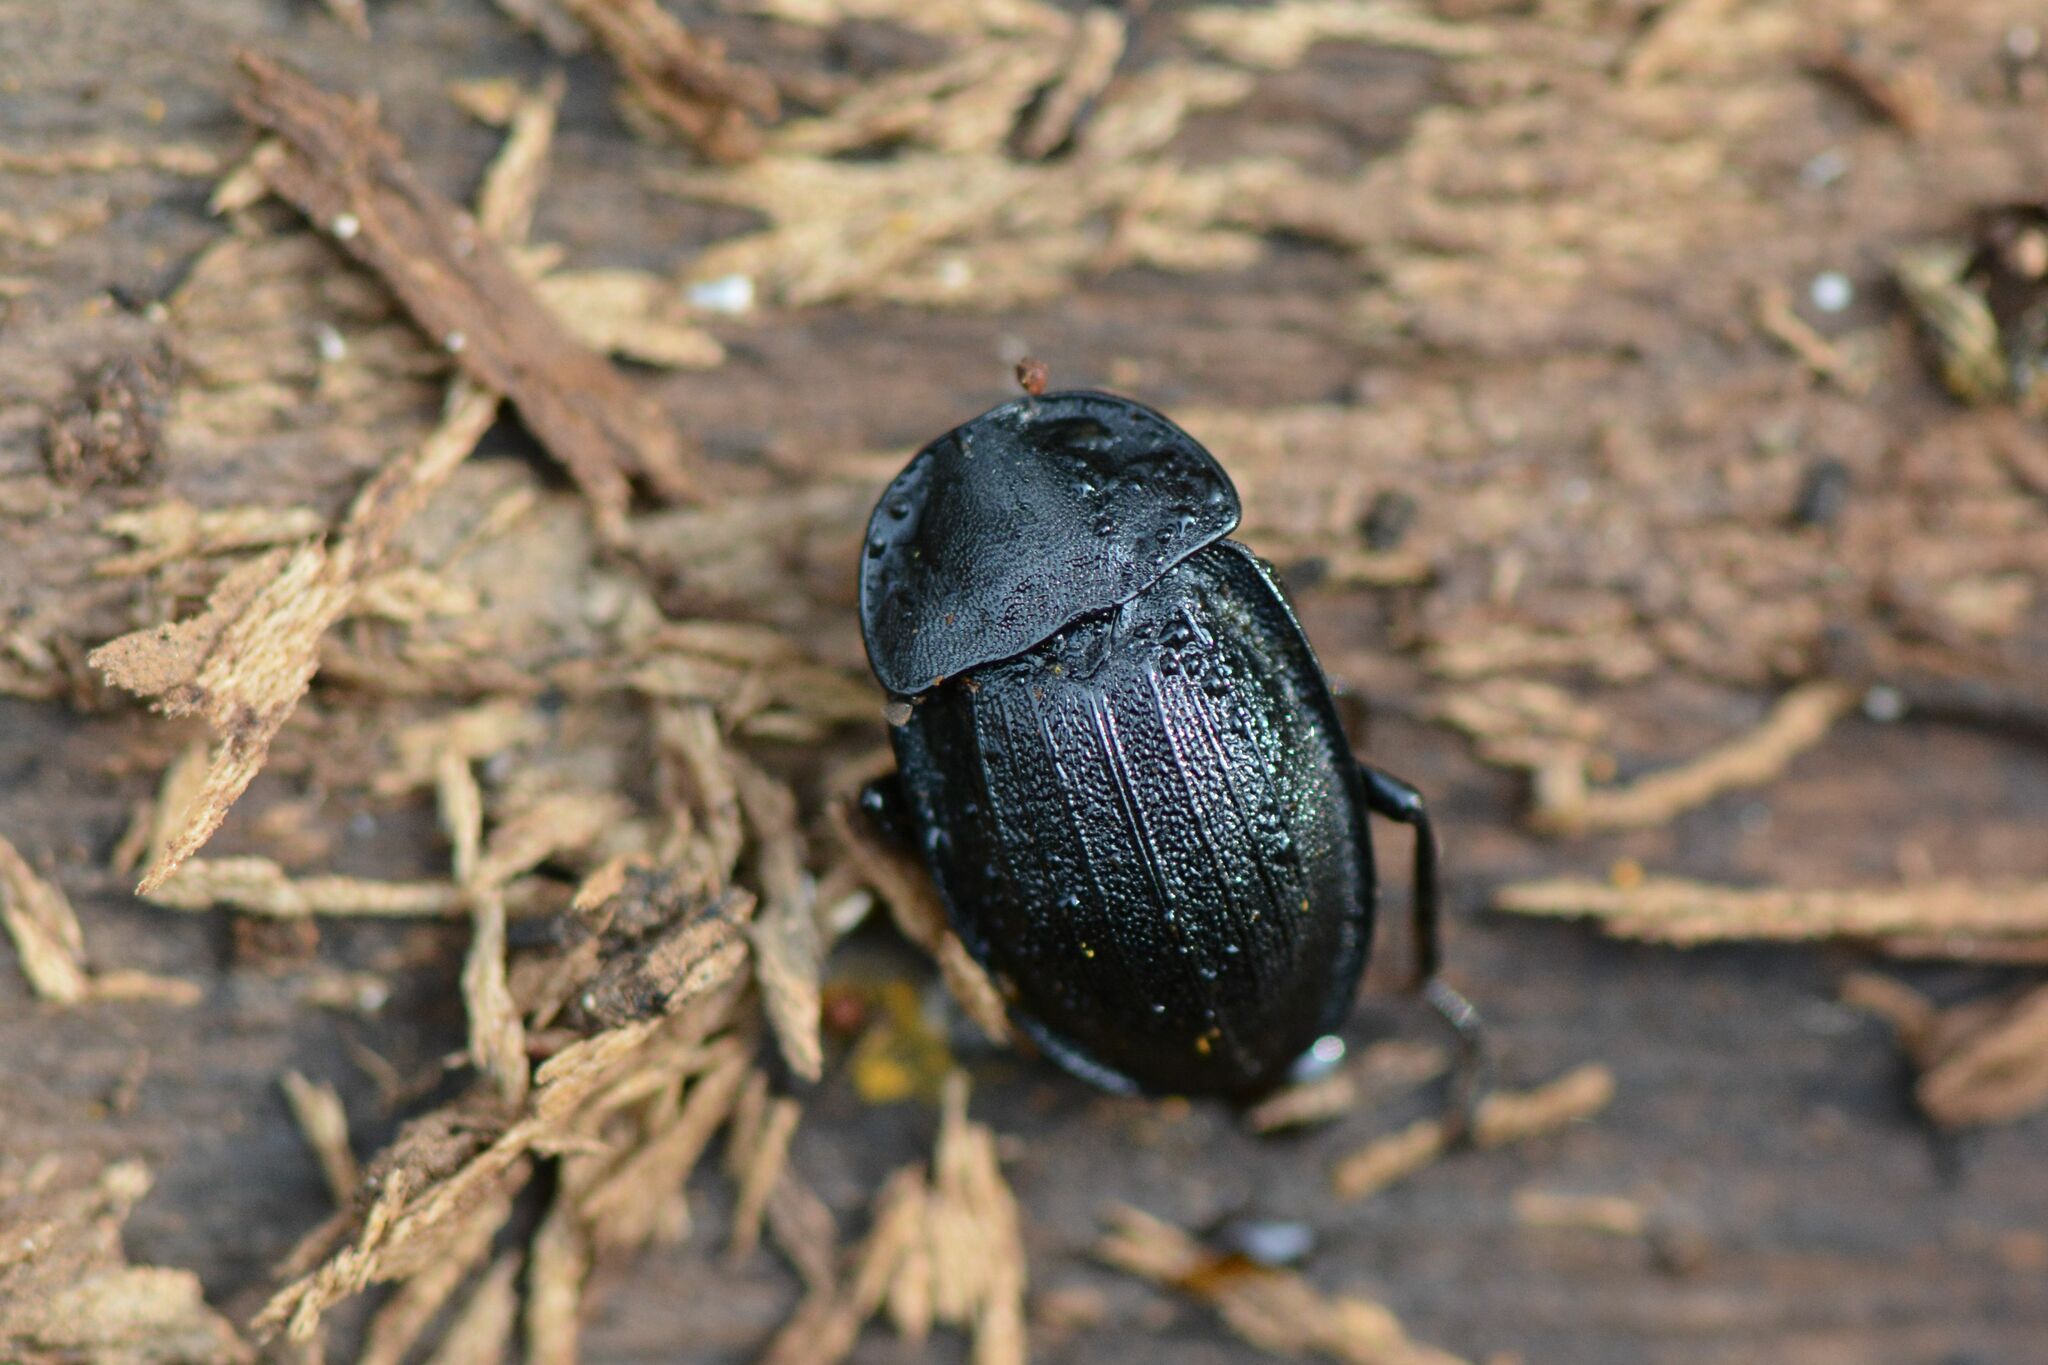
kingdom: Animalia
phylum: Arthropoda
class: Insecta
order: Coleoptera
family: Staphylinidae
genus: Silpha
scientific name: Silpha atrata
